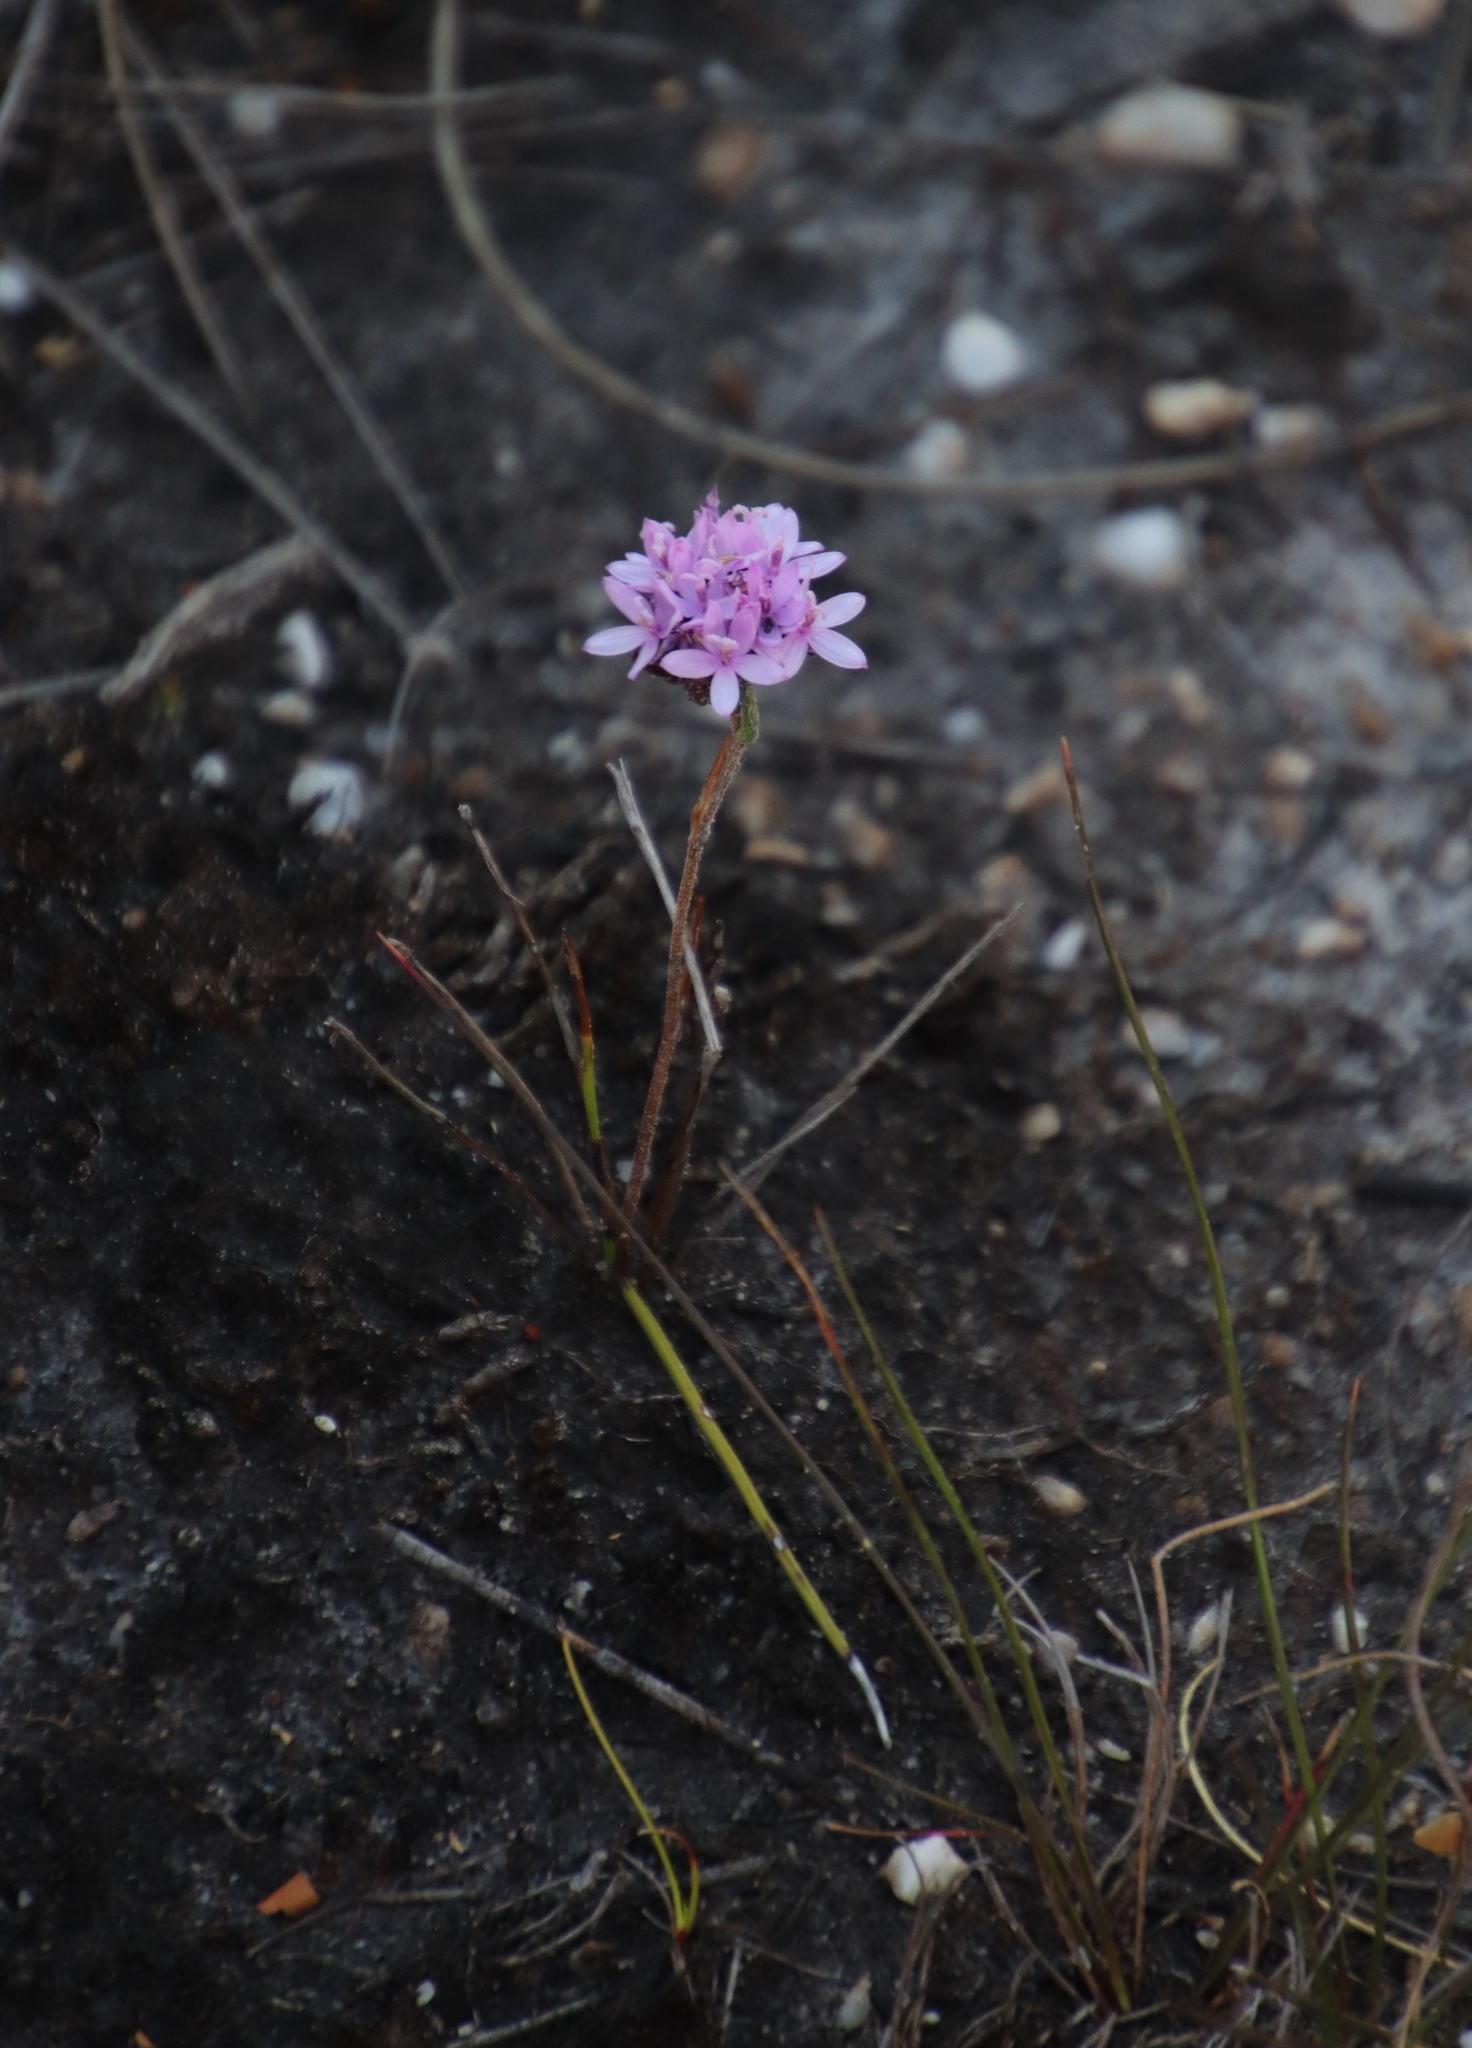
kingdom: Plantae
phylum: Tracheophyta
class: Magnoliopsida
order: Asterales
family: Asteraceae
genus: Corymbium
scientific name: Corymbium africanum
